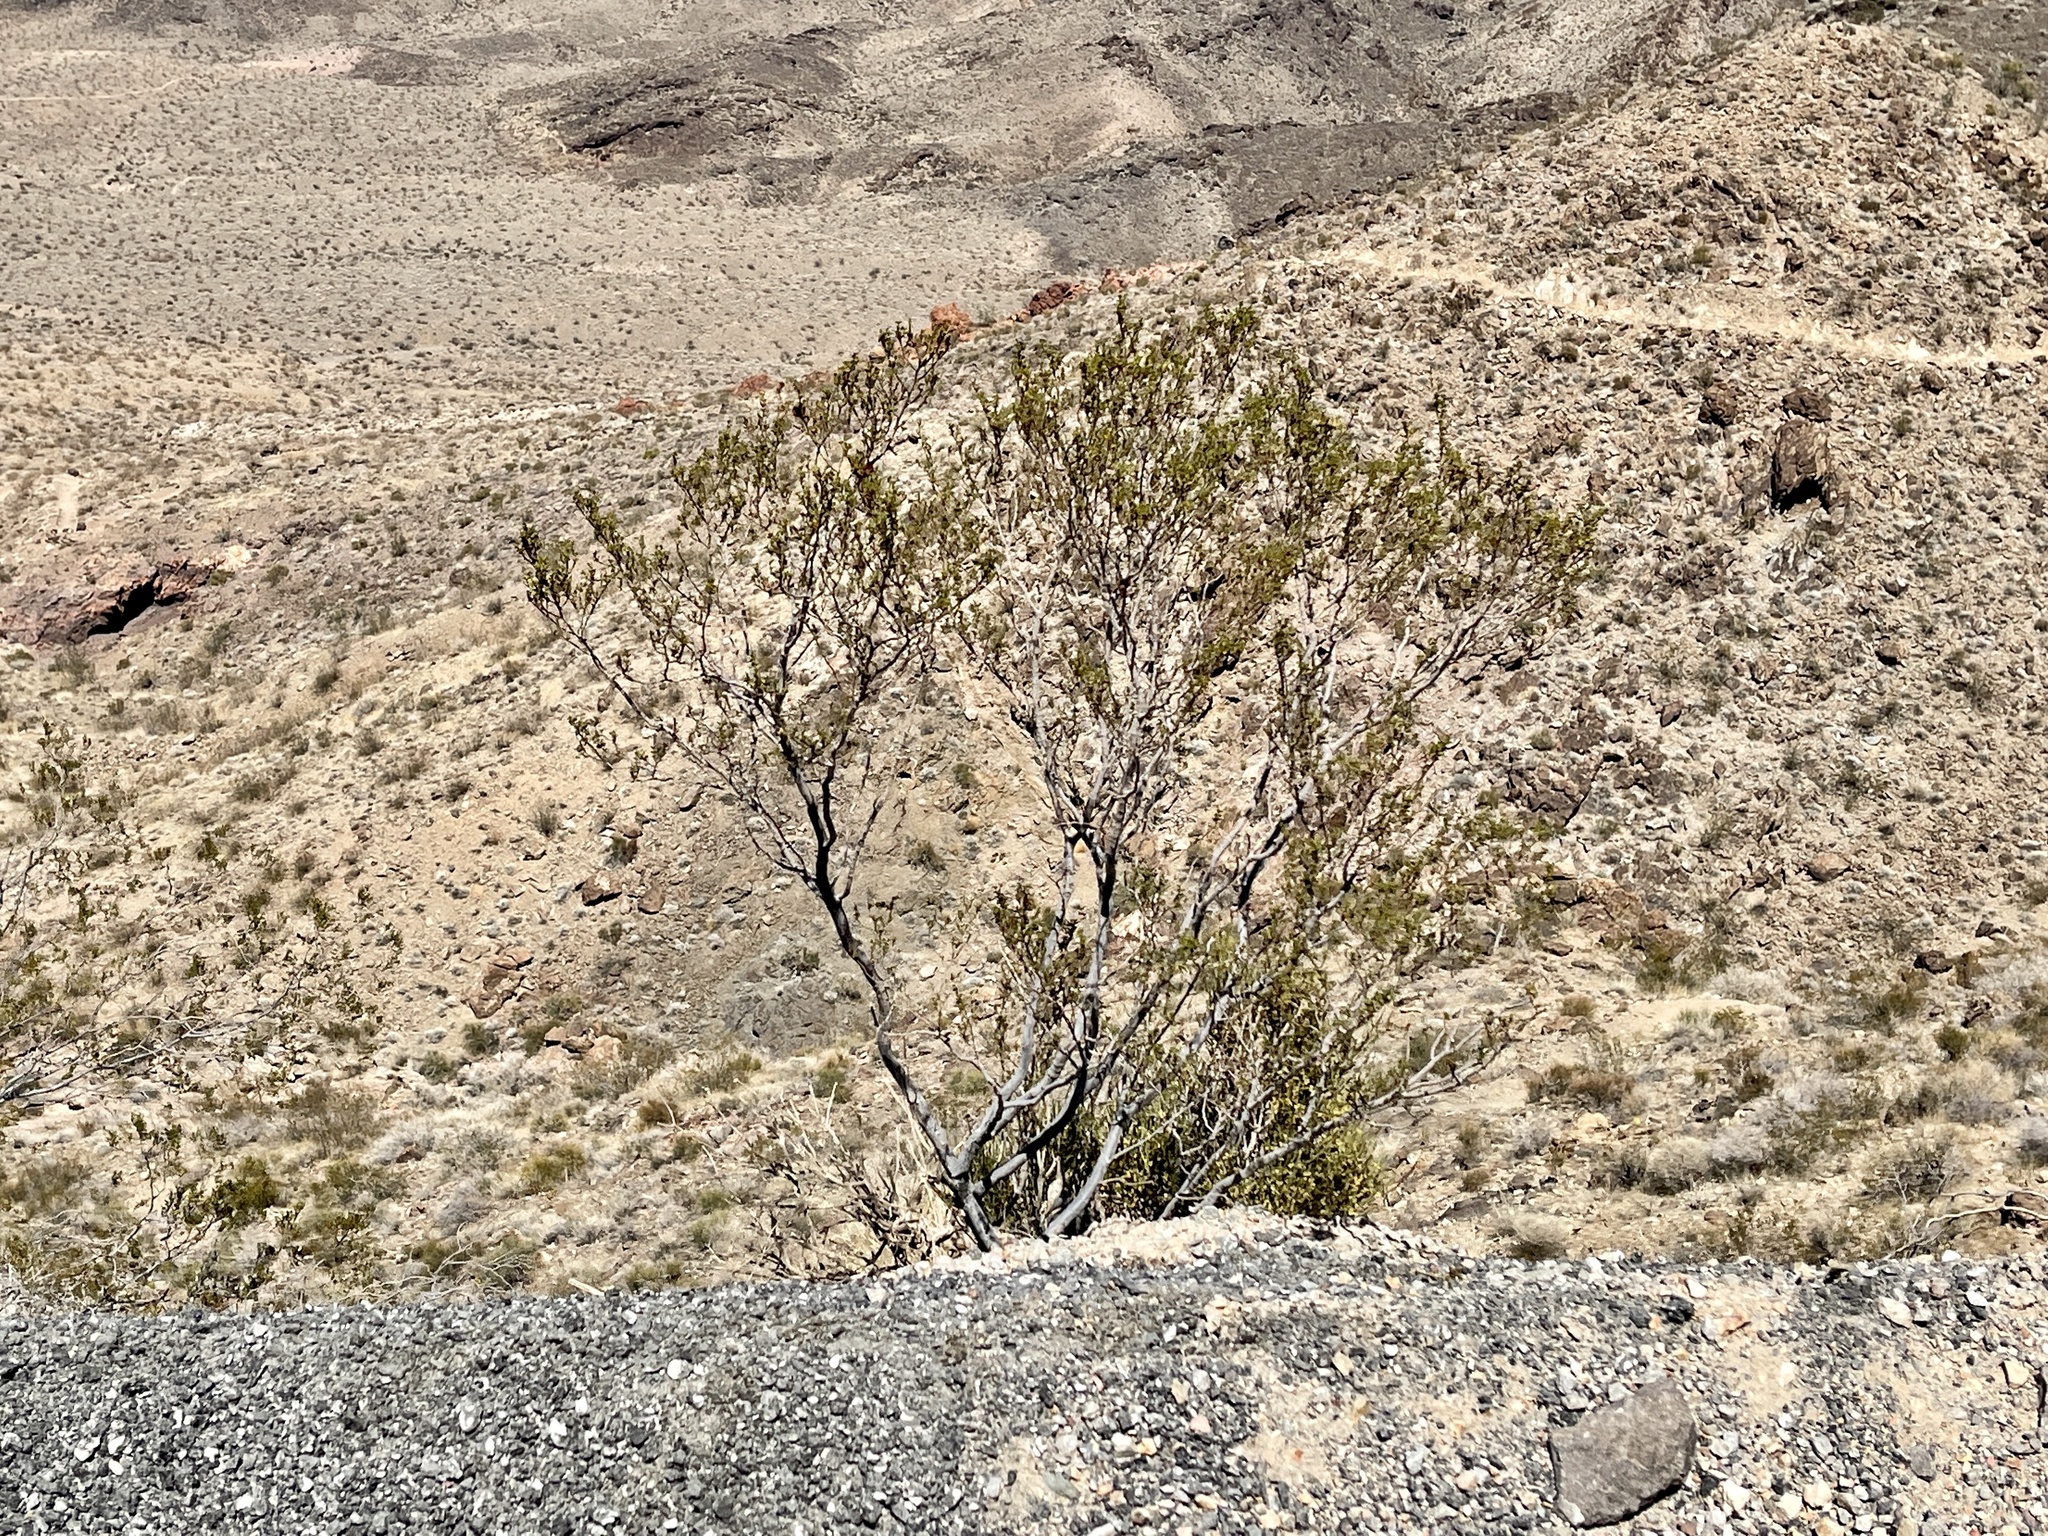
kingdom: Plantae
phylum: Tracheophyta
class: Magnoliopsida
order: Zygophyllales
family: Zygophyllaceae
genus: Larrea
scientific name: Larrea tridentata
